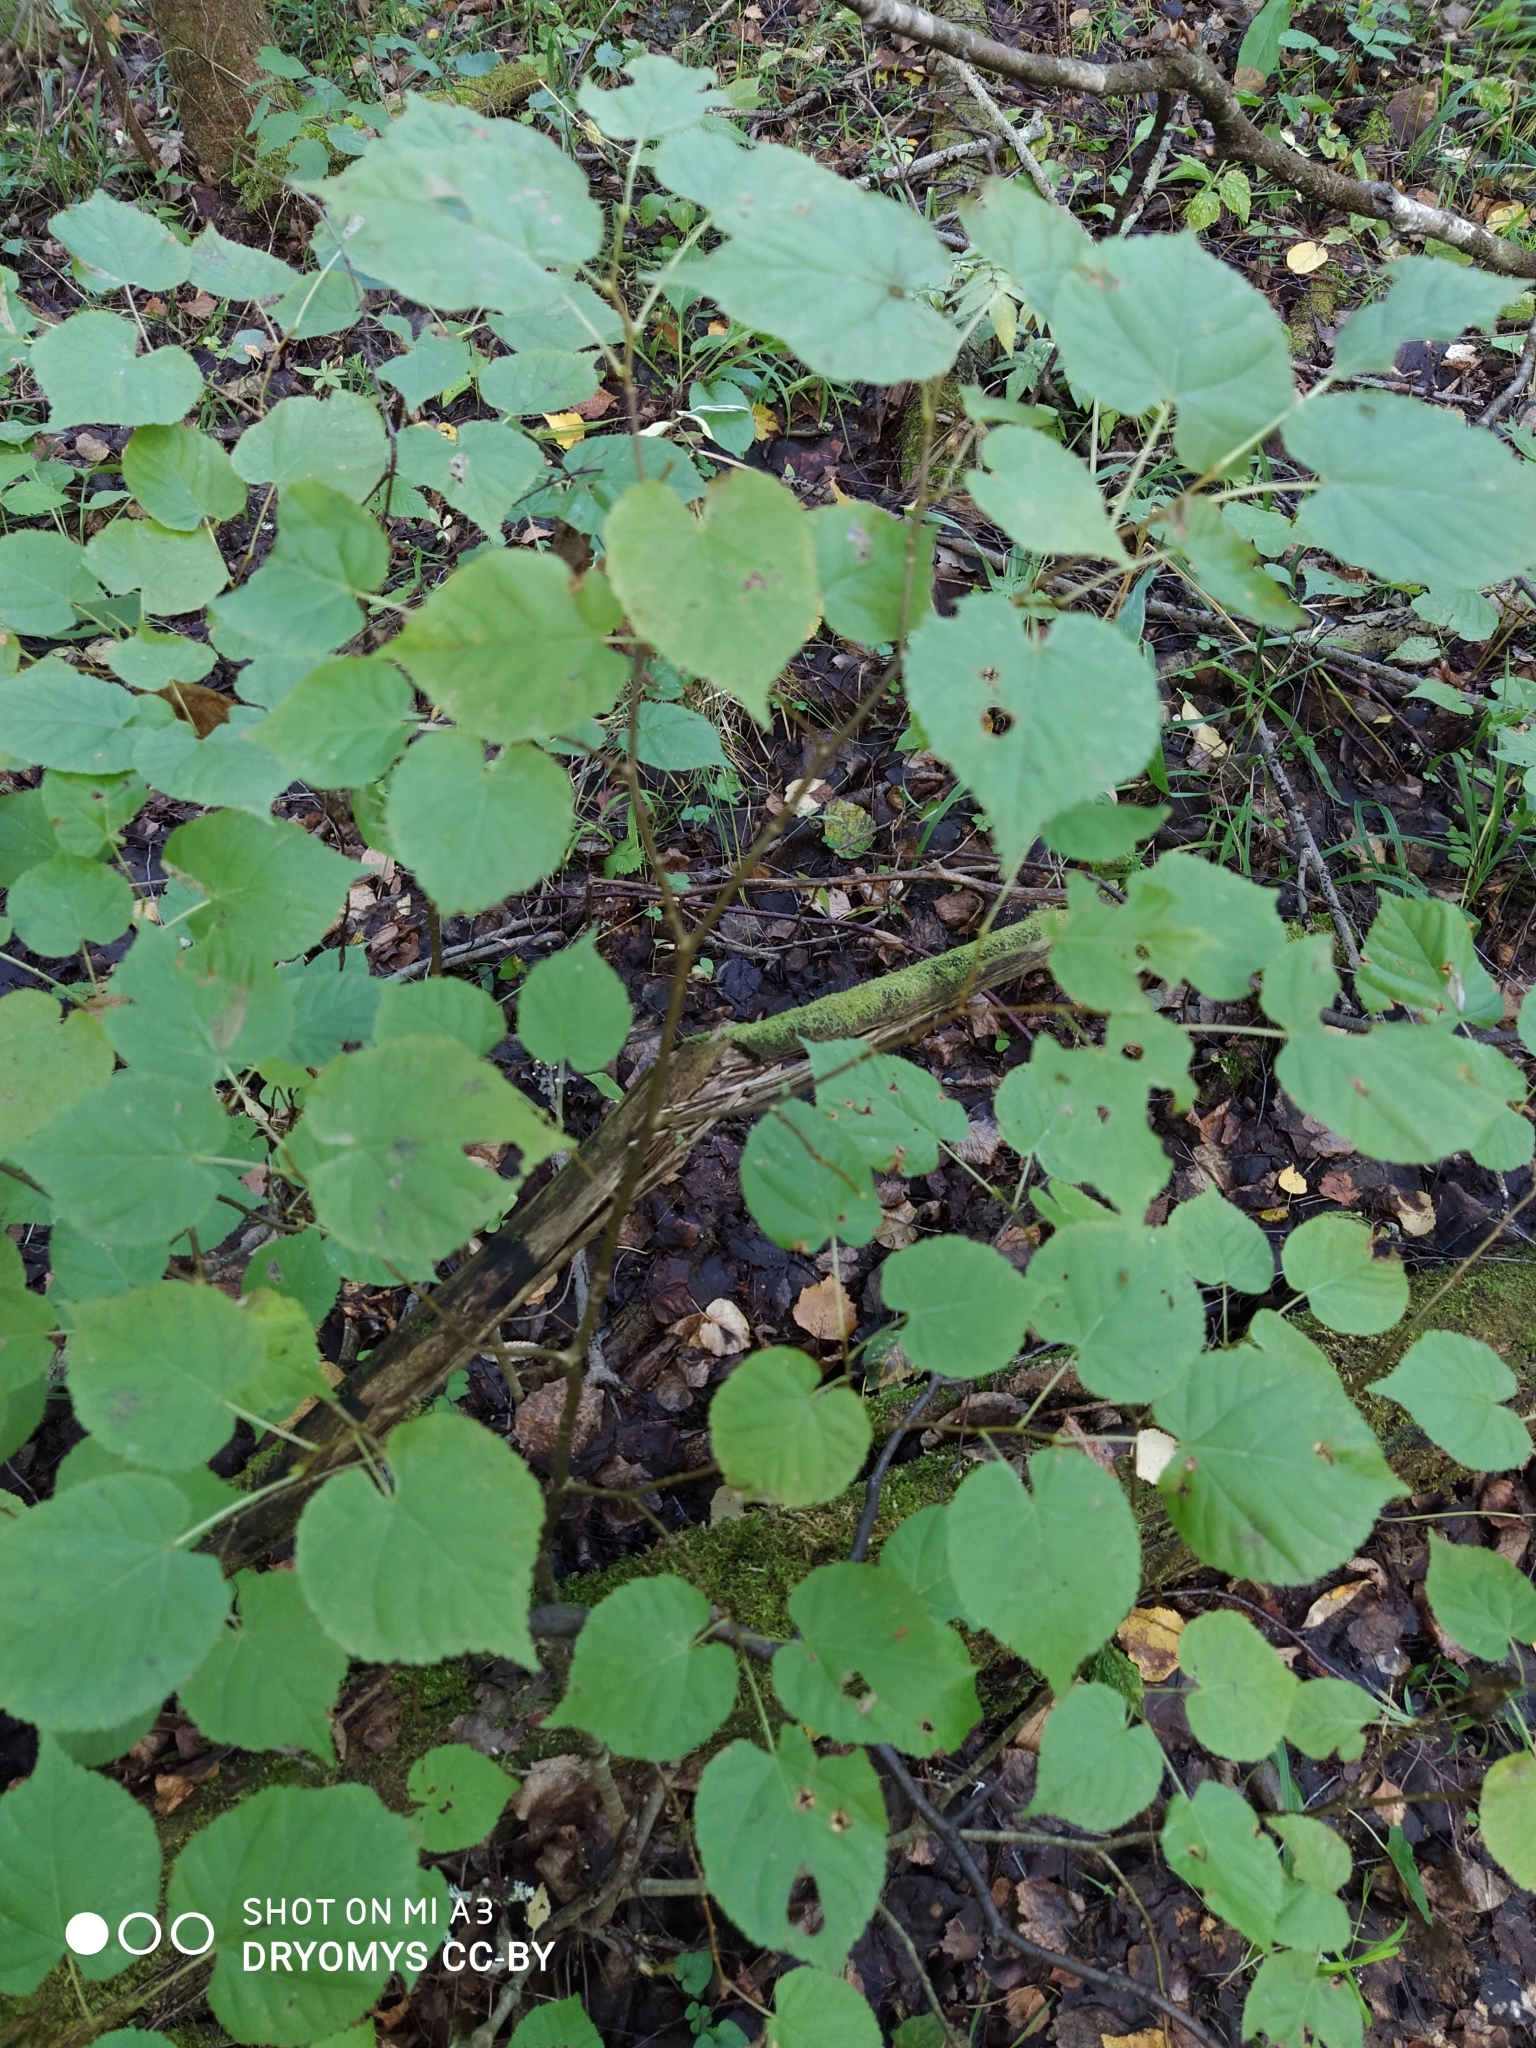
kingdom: Plantae
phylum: Tracheophyta
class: Magnoliopsida
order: Malvales
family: Malvaceae
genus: Tilia
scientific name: Tilia cordata
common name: Small-leaved lime
